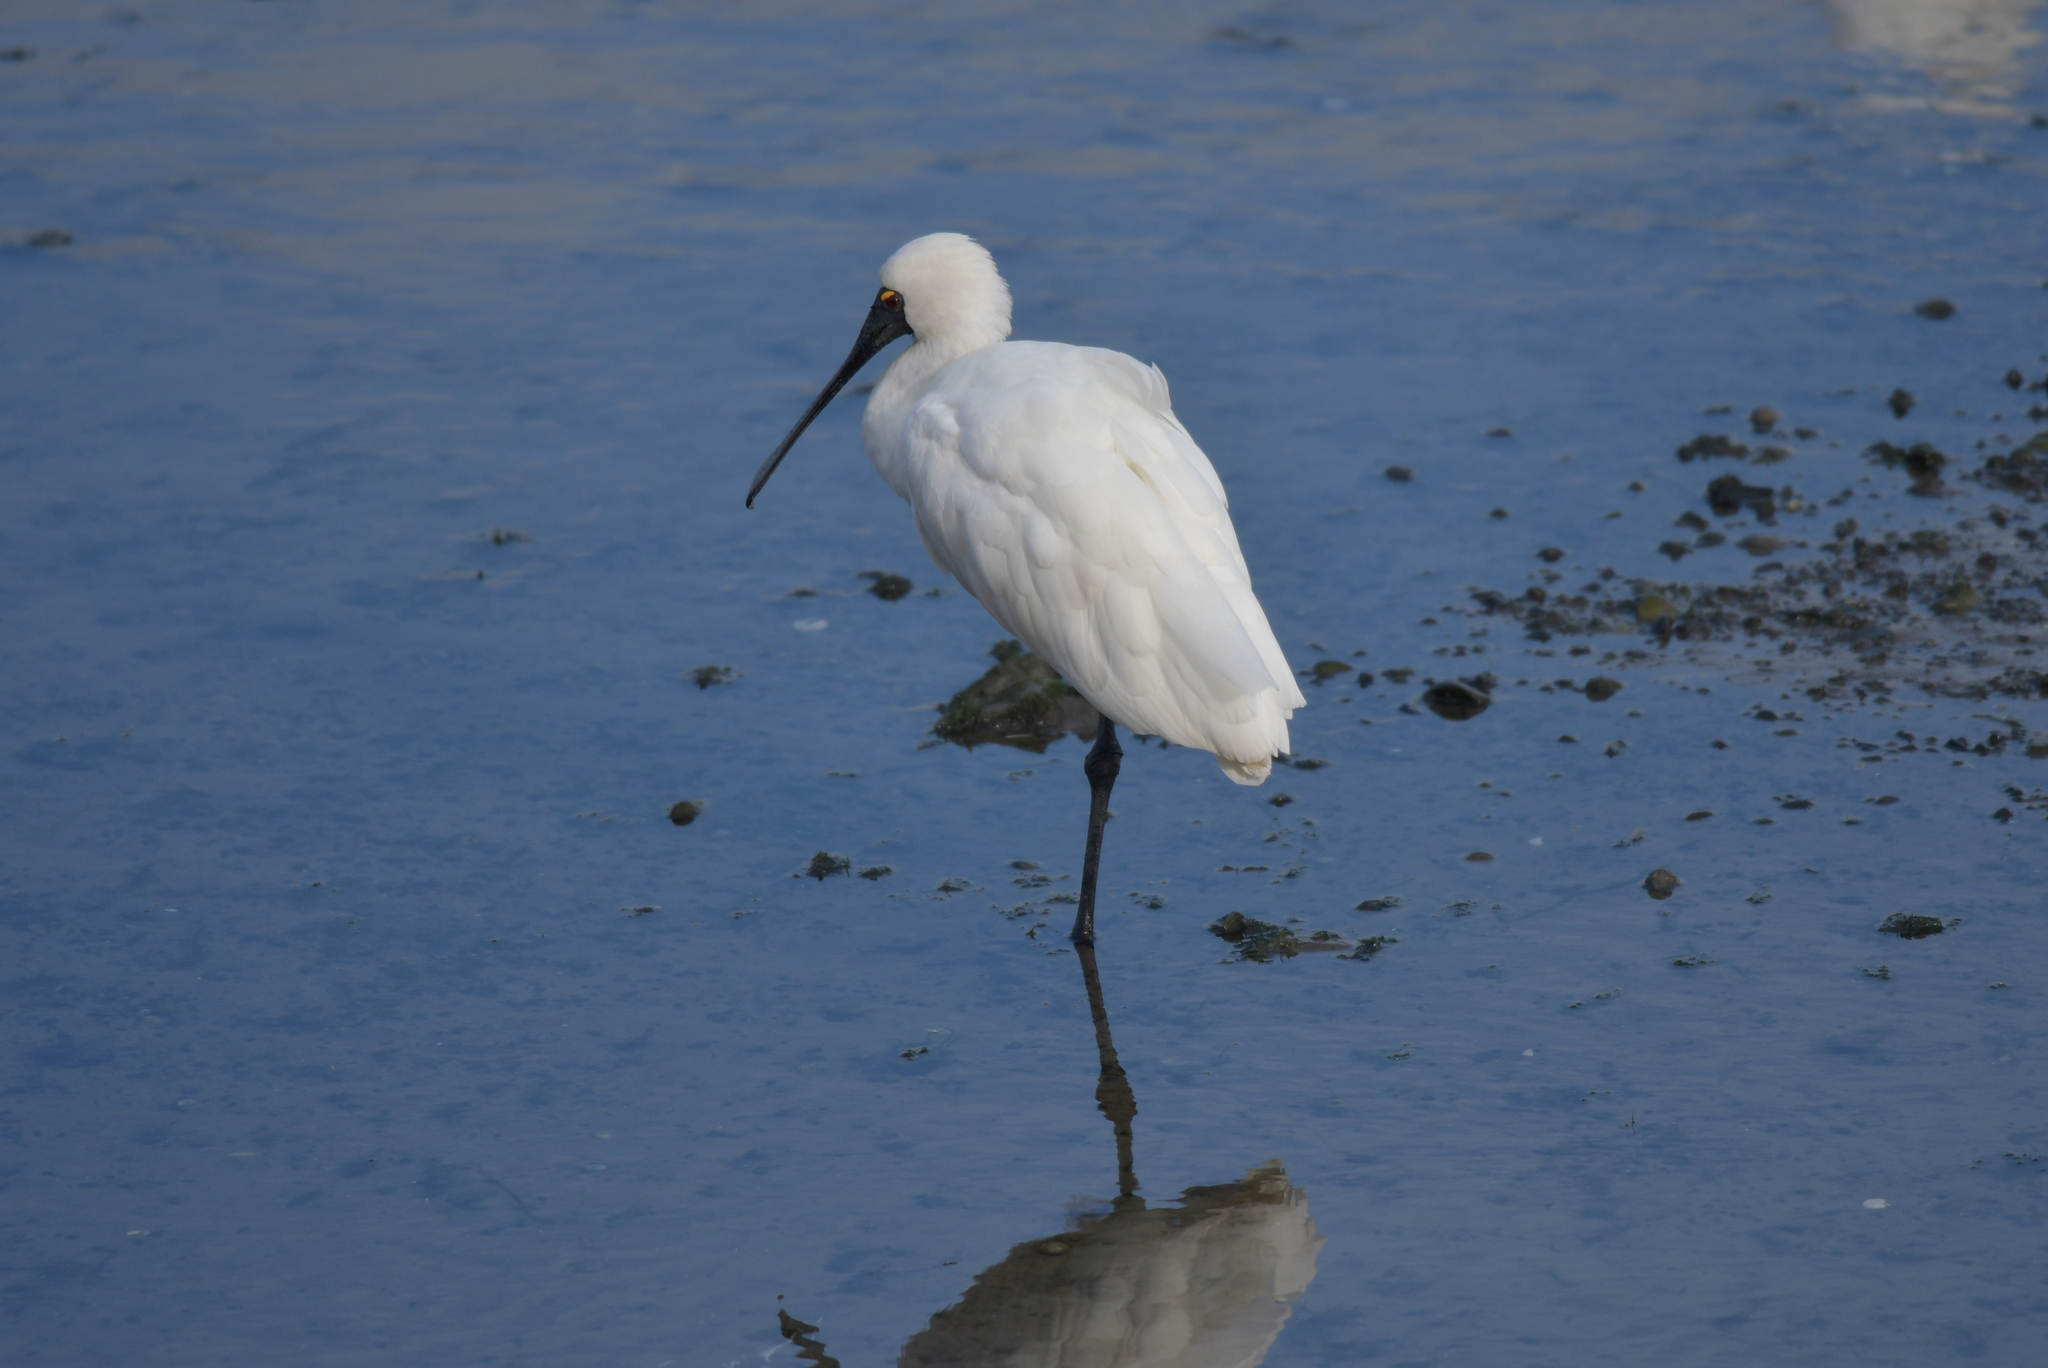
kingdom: Animalia
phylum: Chordata
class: Aves
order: Pelecaniformes
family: Threskiornithidae
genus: Platalea
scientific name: Platalea regia
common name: Royal spoonbill
